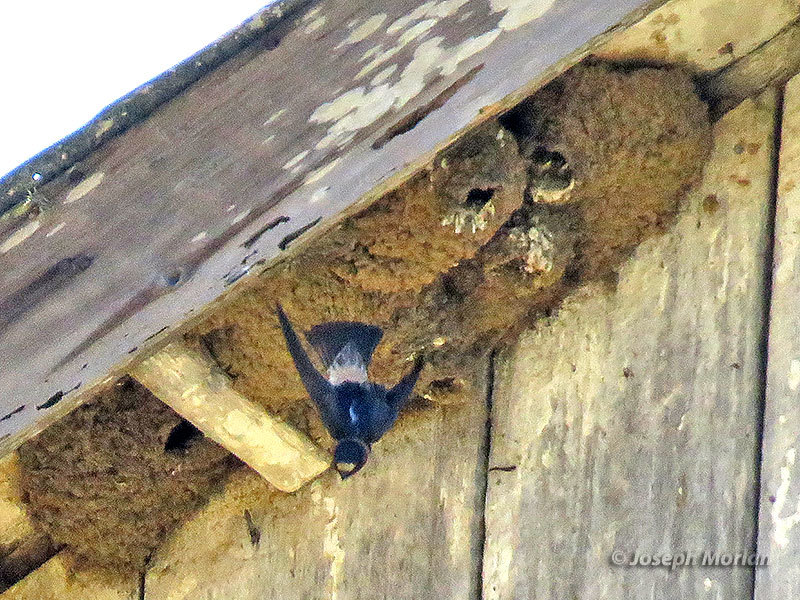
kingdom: Animalia
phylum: Chordata
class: Aves
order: Passeriformes
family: Hirundinidae
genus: Petrochelidon
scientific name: Petrochelidon pyrrhonota
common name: American cliff swallow
